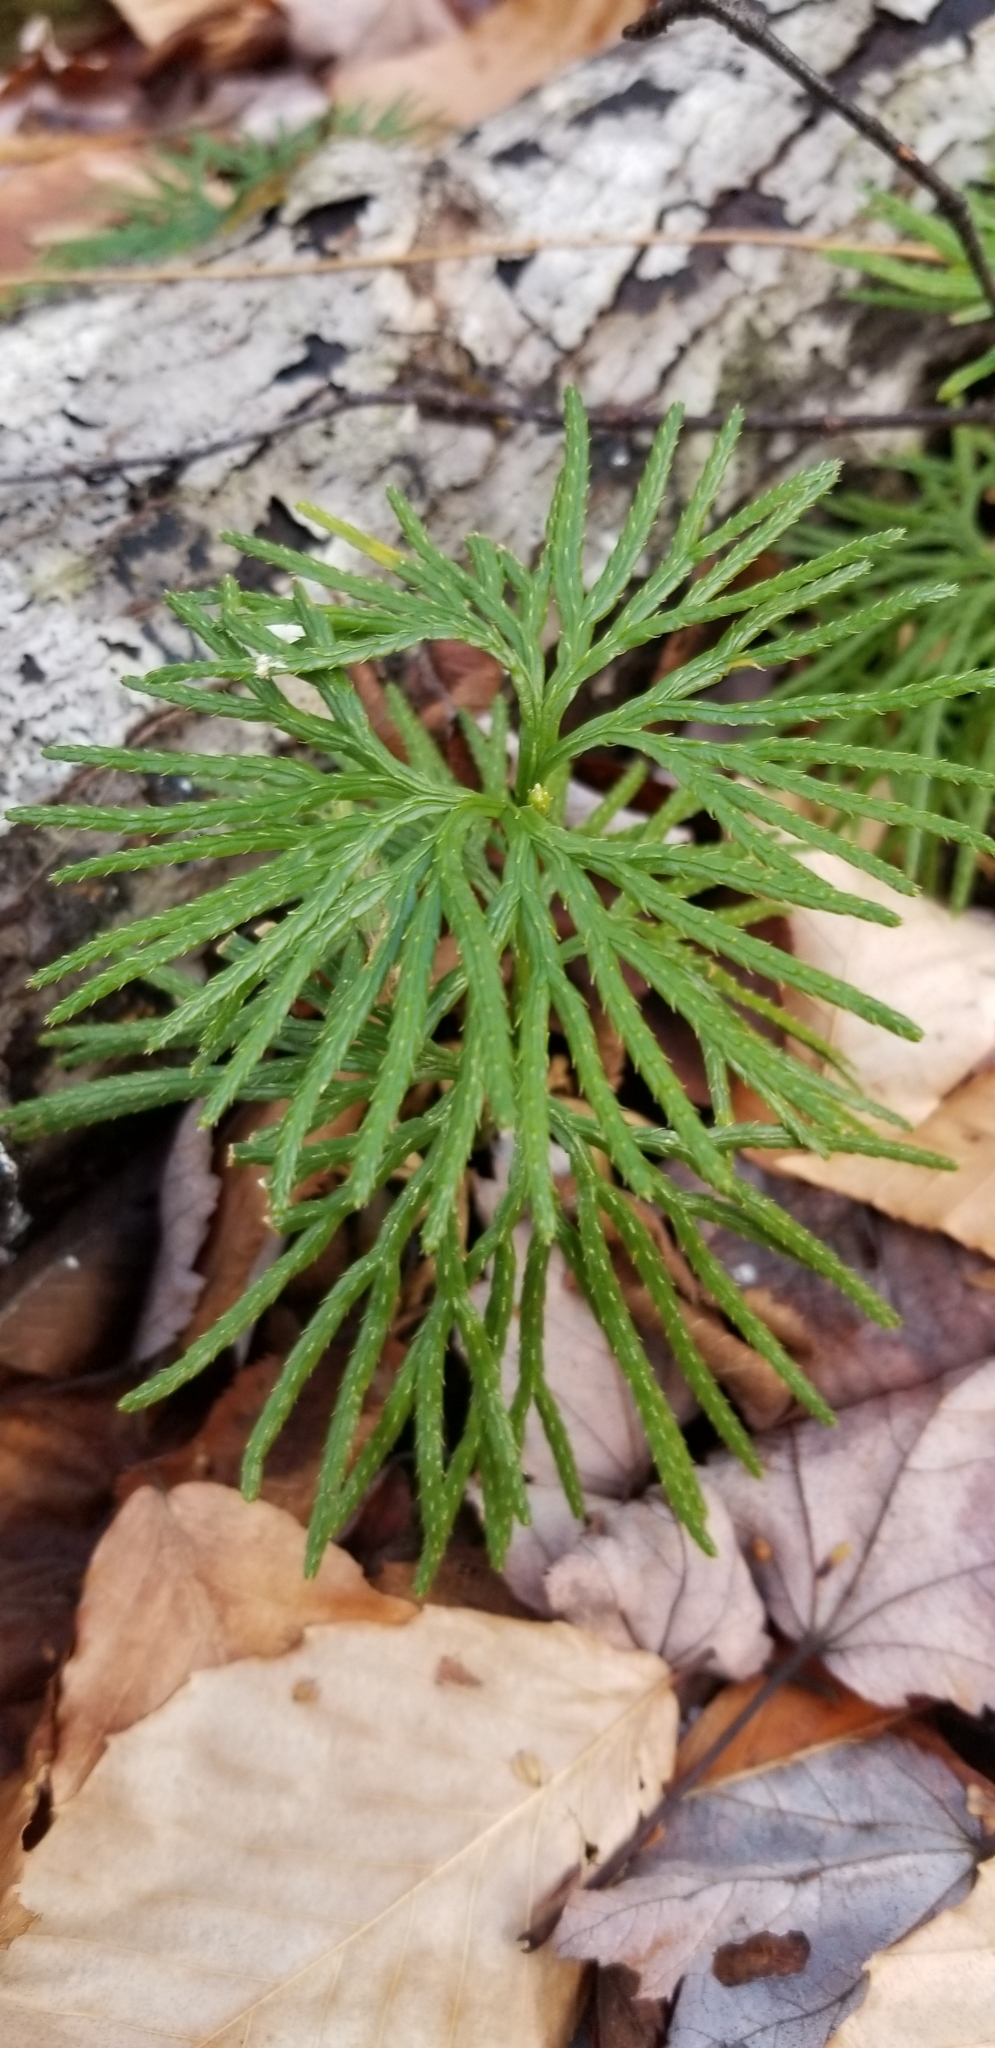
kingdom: Plantae
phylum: Tracheophyta
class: Lycopodiopsida
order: Lycopodiales
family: Lycopodiaceae
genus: Diphasiastrum
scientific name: Diphasiastrum digitatum
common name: Southern running-pine
